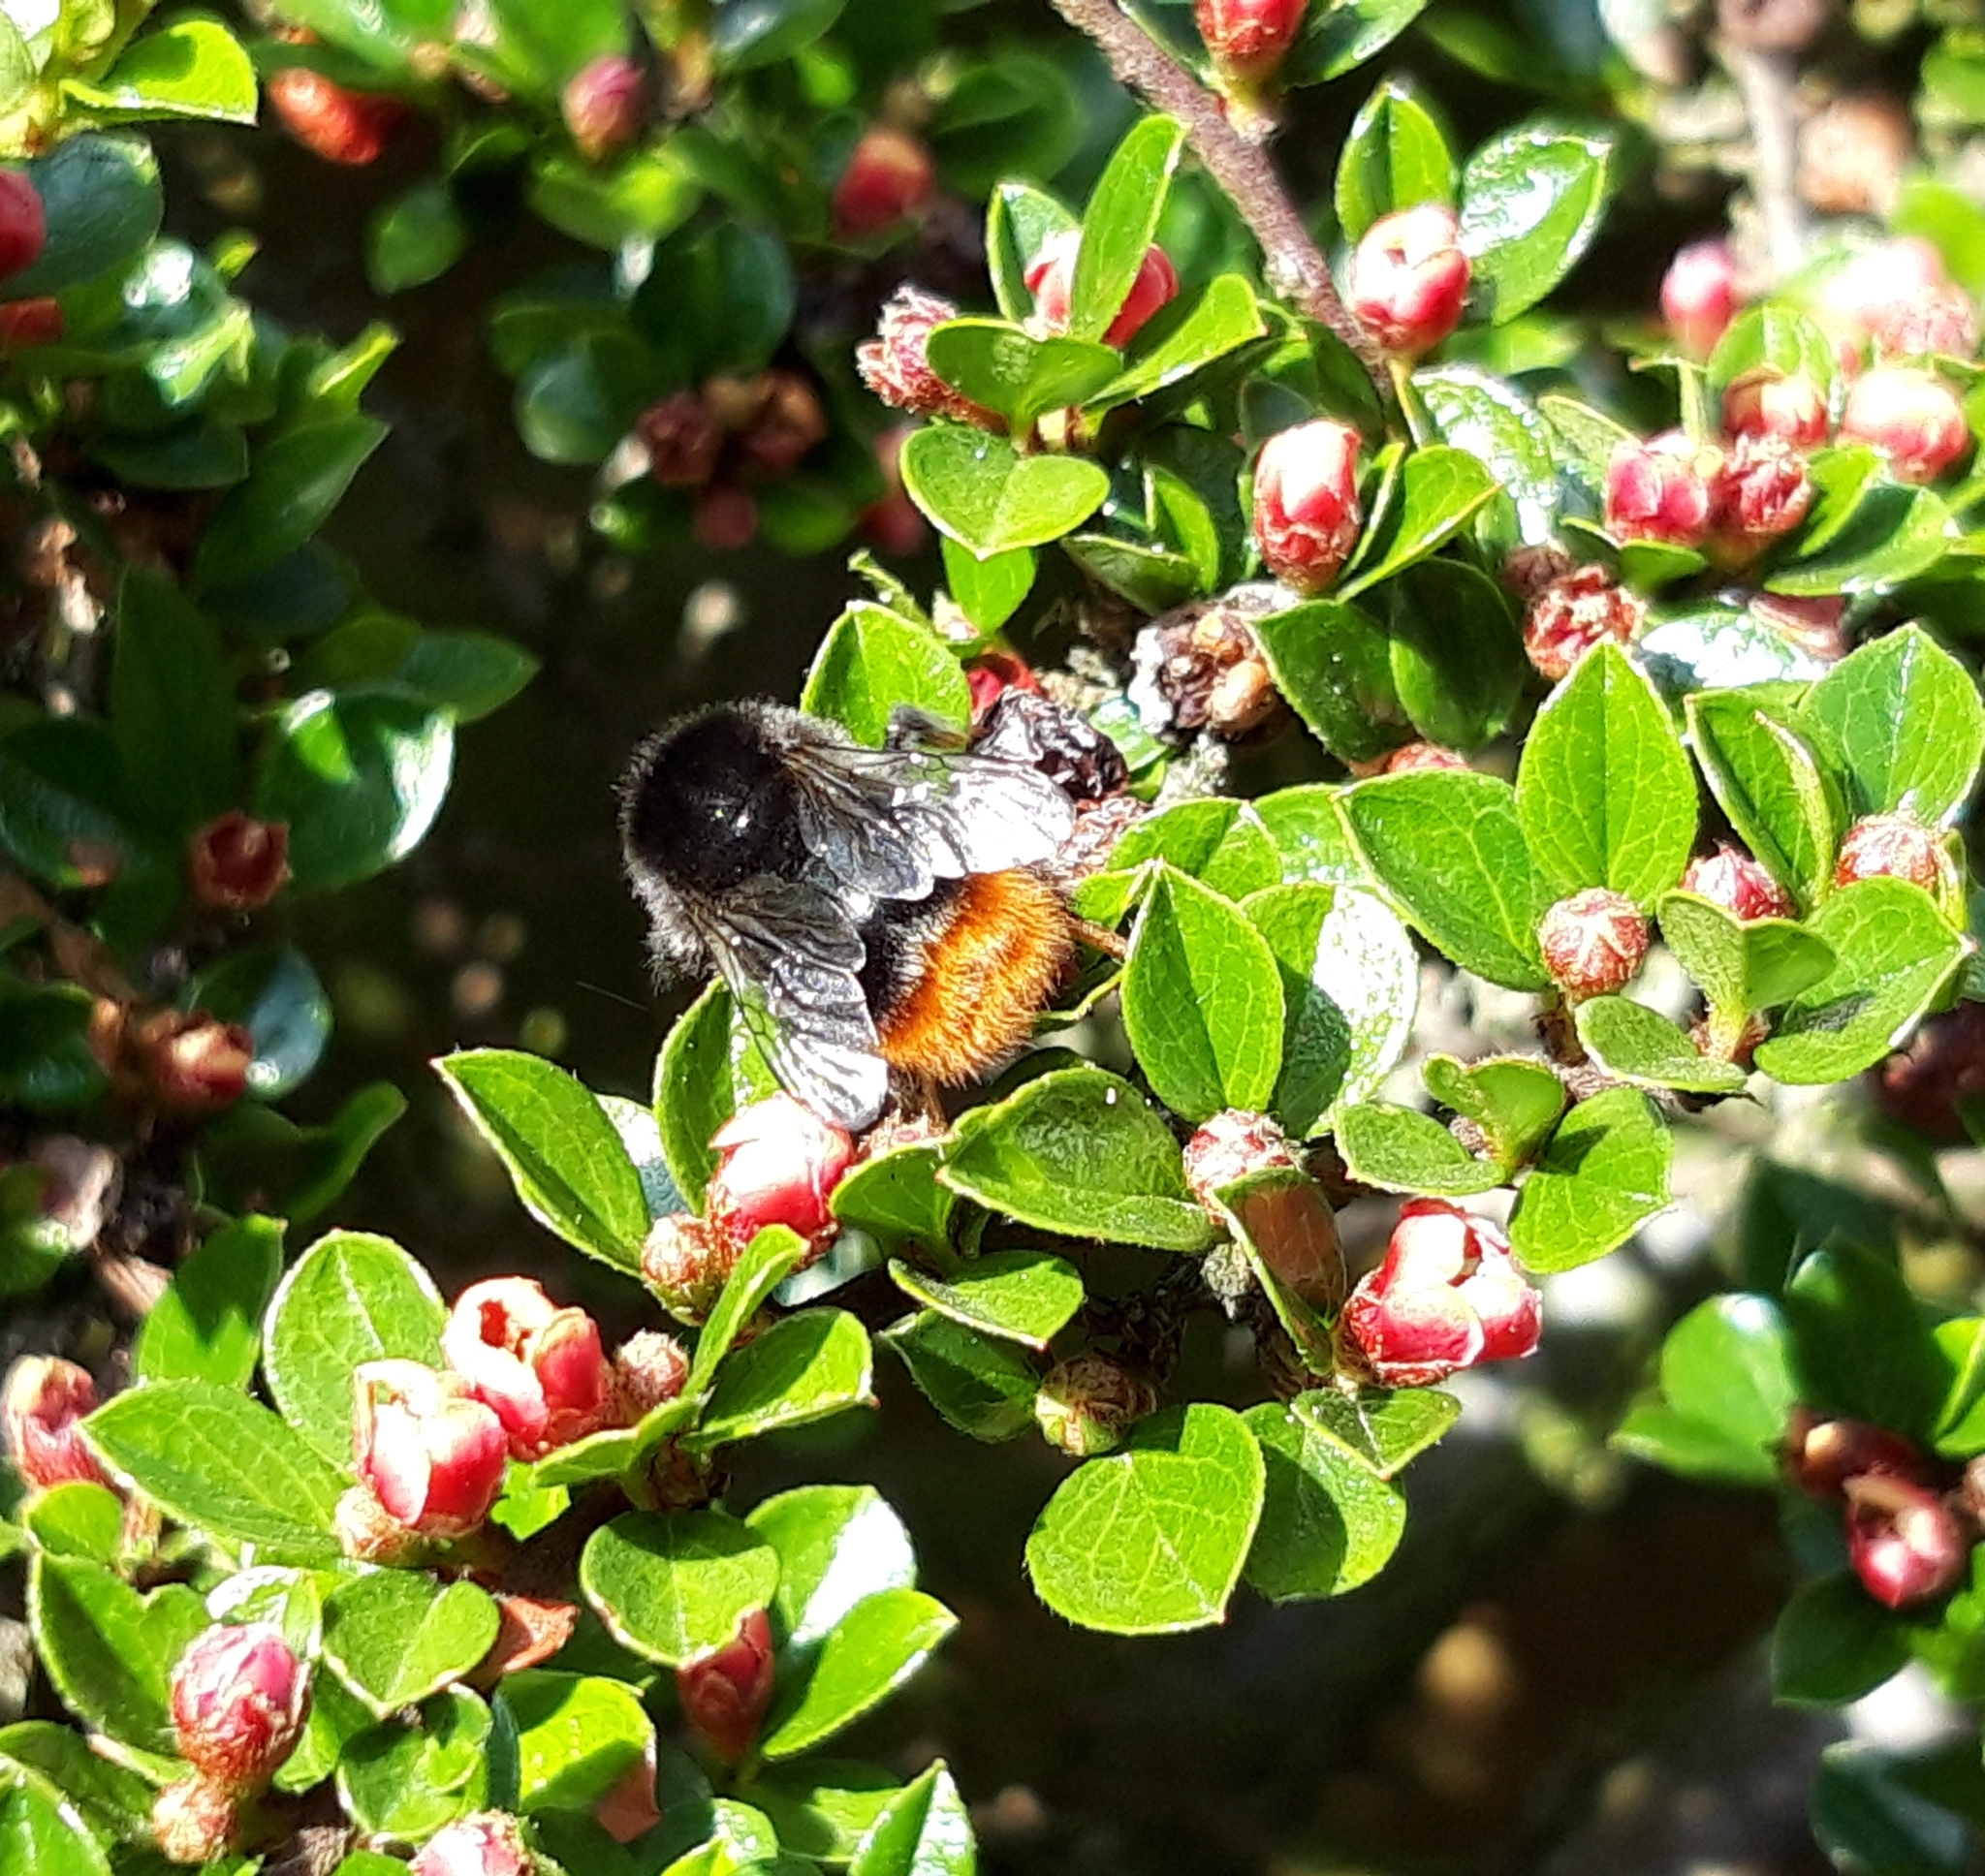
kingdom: Animalia
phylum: Arthropoda
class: Insecta
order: Hymenoptera
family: Apidae
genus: Bombus
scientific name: Bombus lapidarius
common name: Large red-tailed humble-bee
